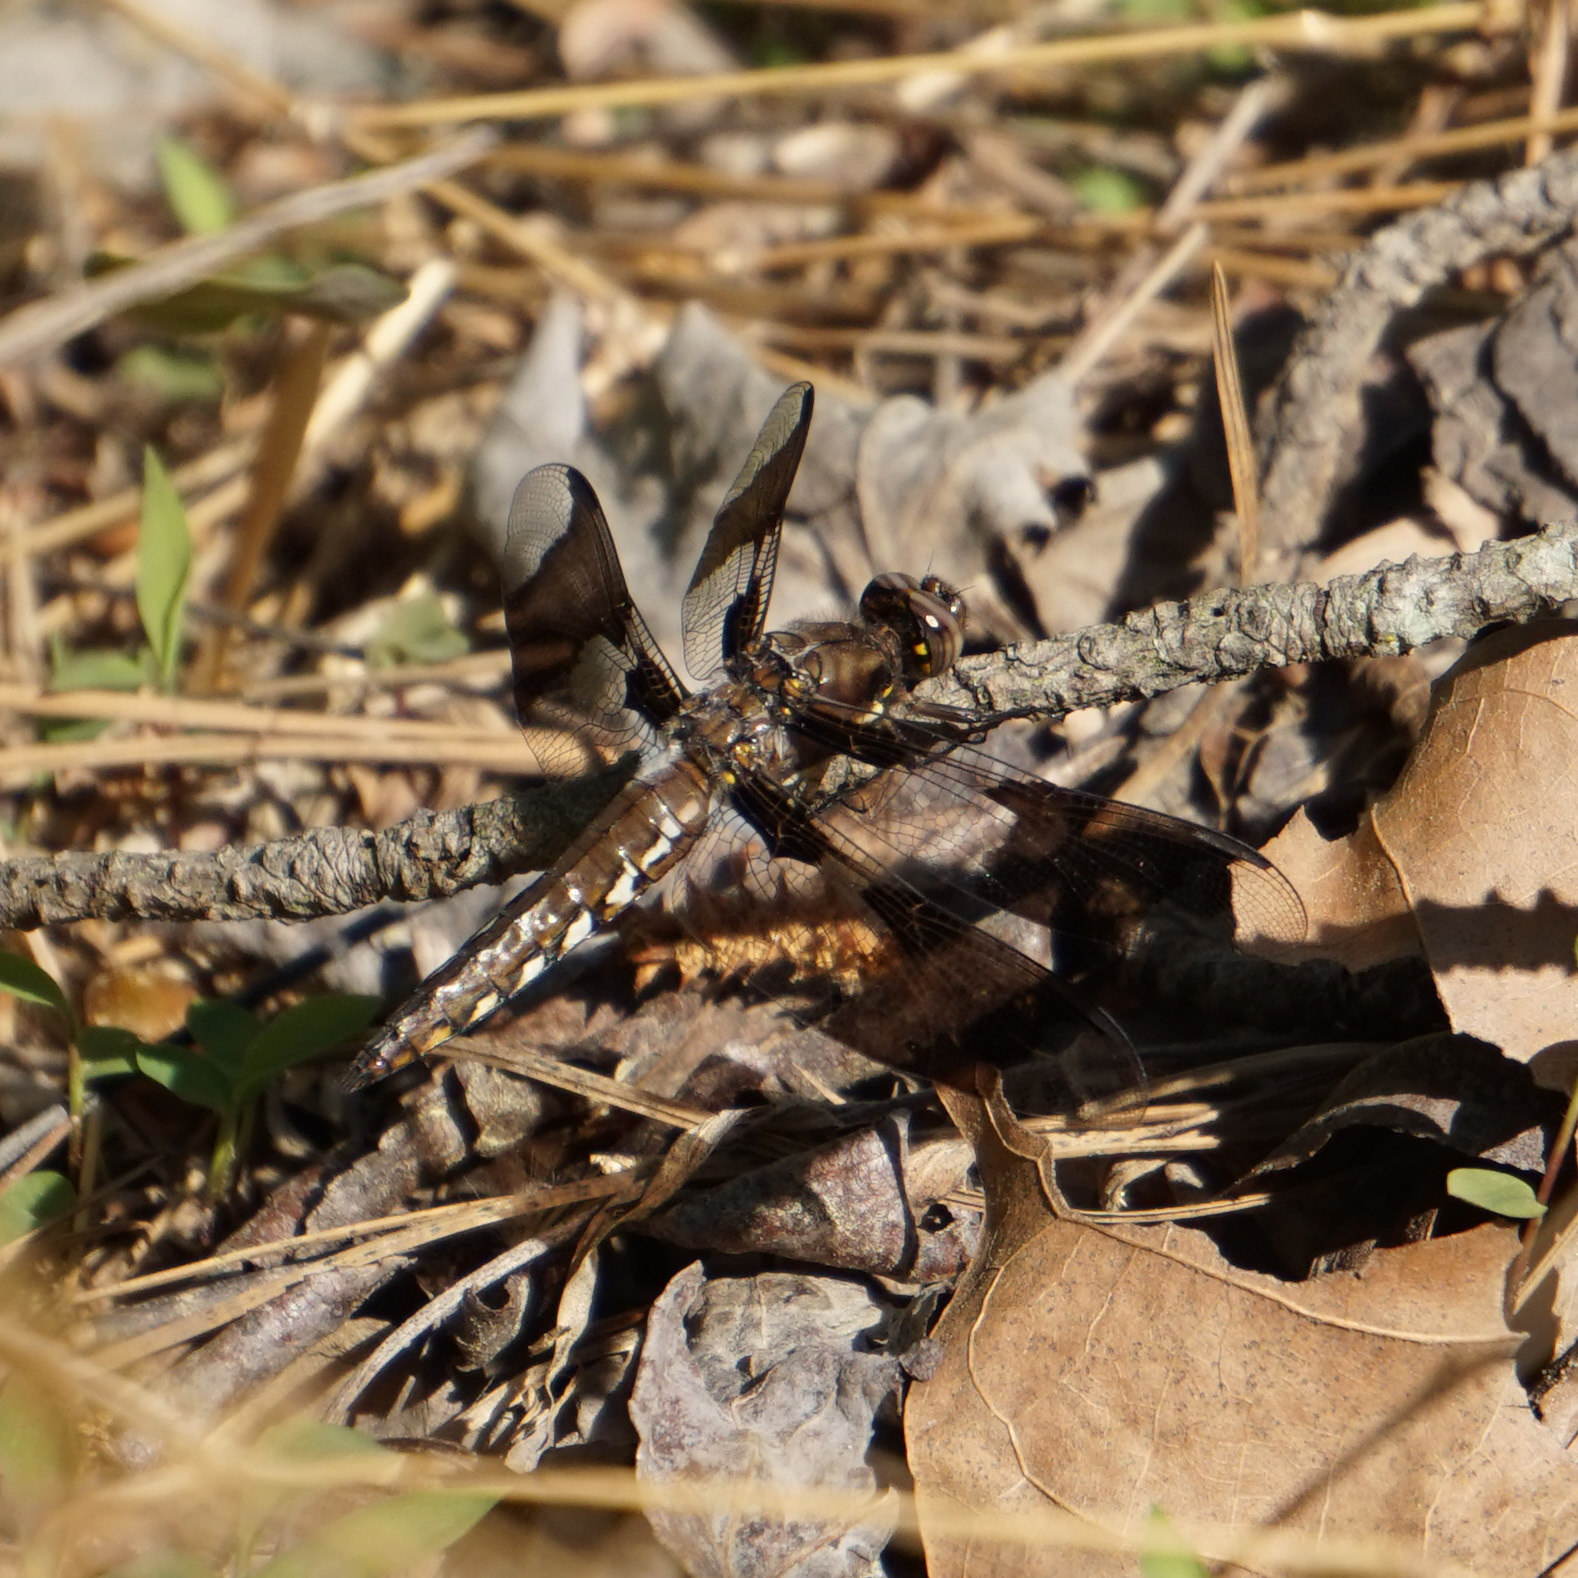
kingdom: Animalia
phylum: Arthropoda
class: Insecta
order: Odonata
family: Libellulidae
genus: Plathemis
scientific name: Plathemis lydia
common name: Common whitetail
